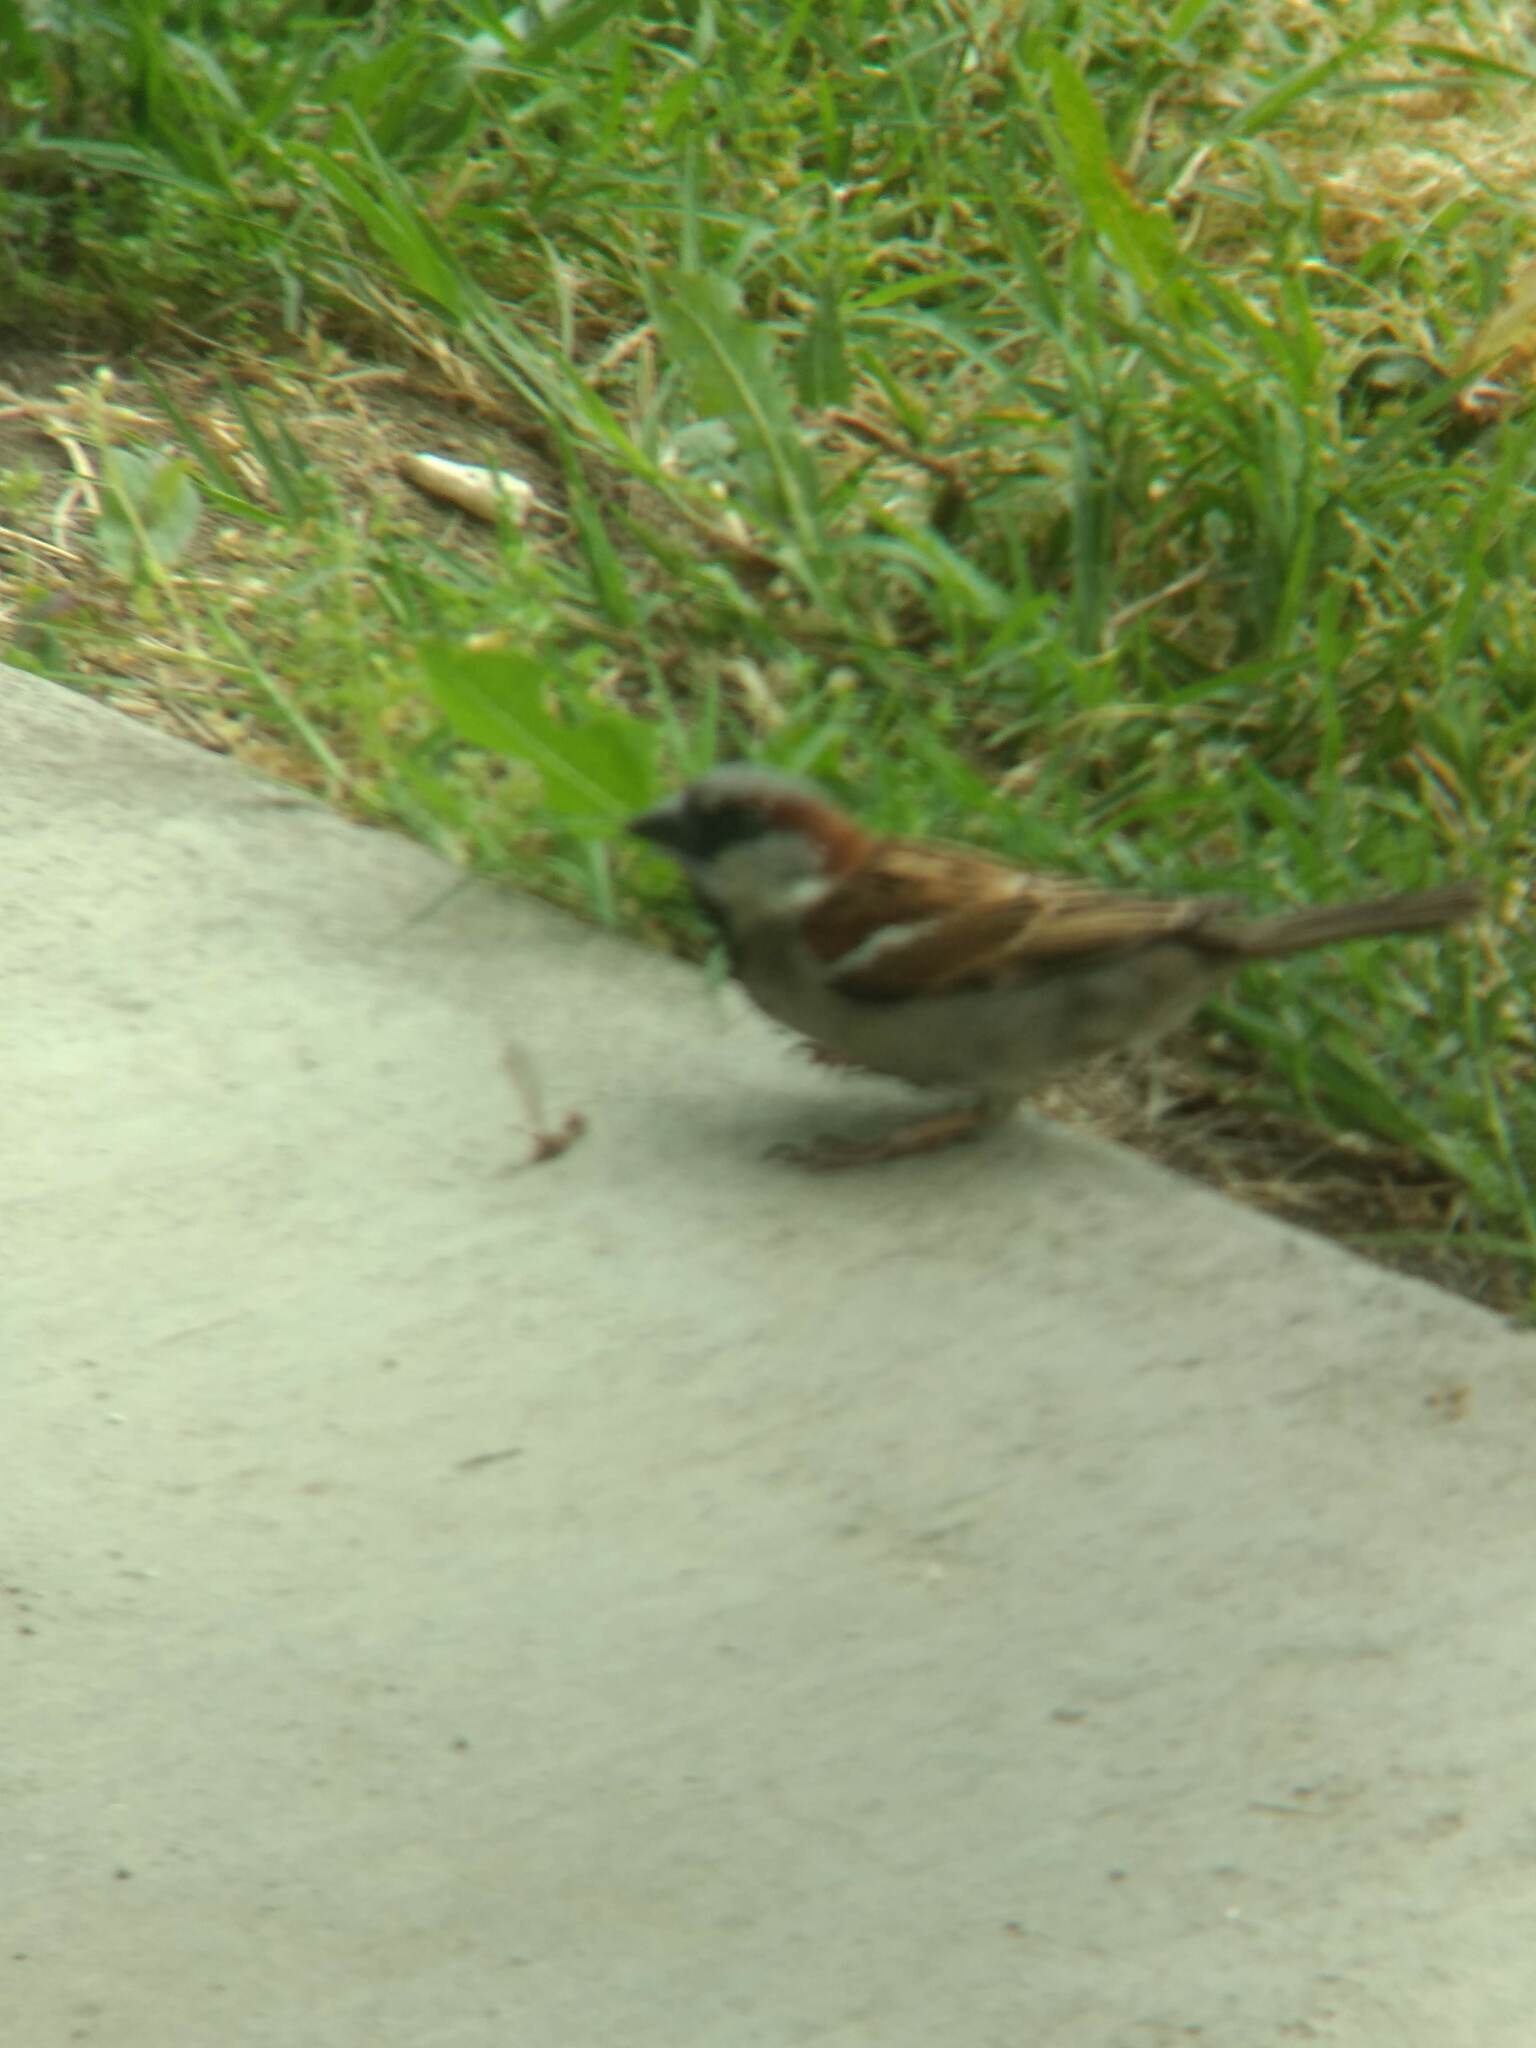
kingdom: Animalia
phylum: Chordata
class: Aves
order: Passeriformes
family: Passeridae
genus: Passer
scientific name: Passer domesticus
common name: House sparrow
